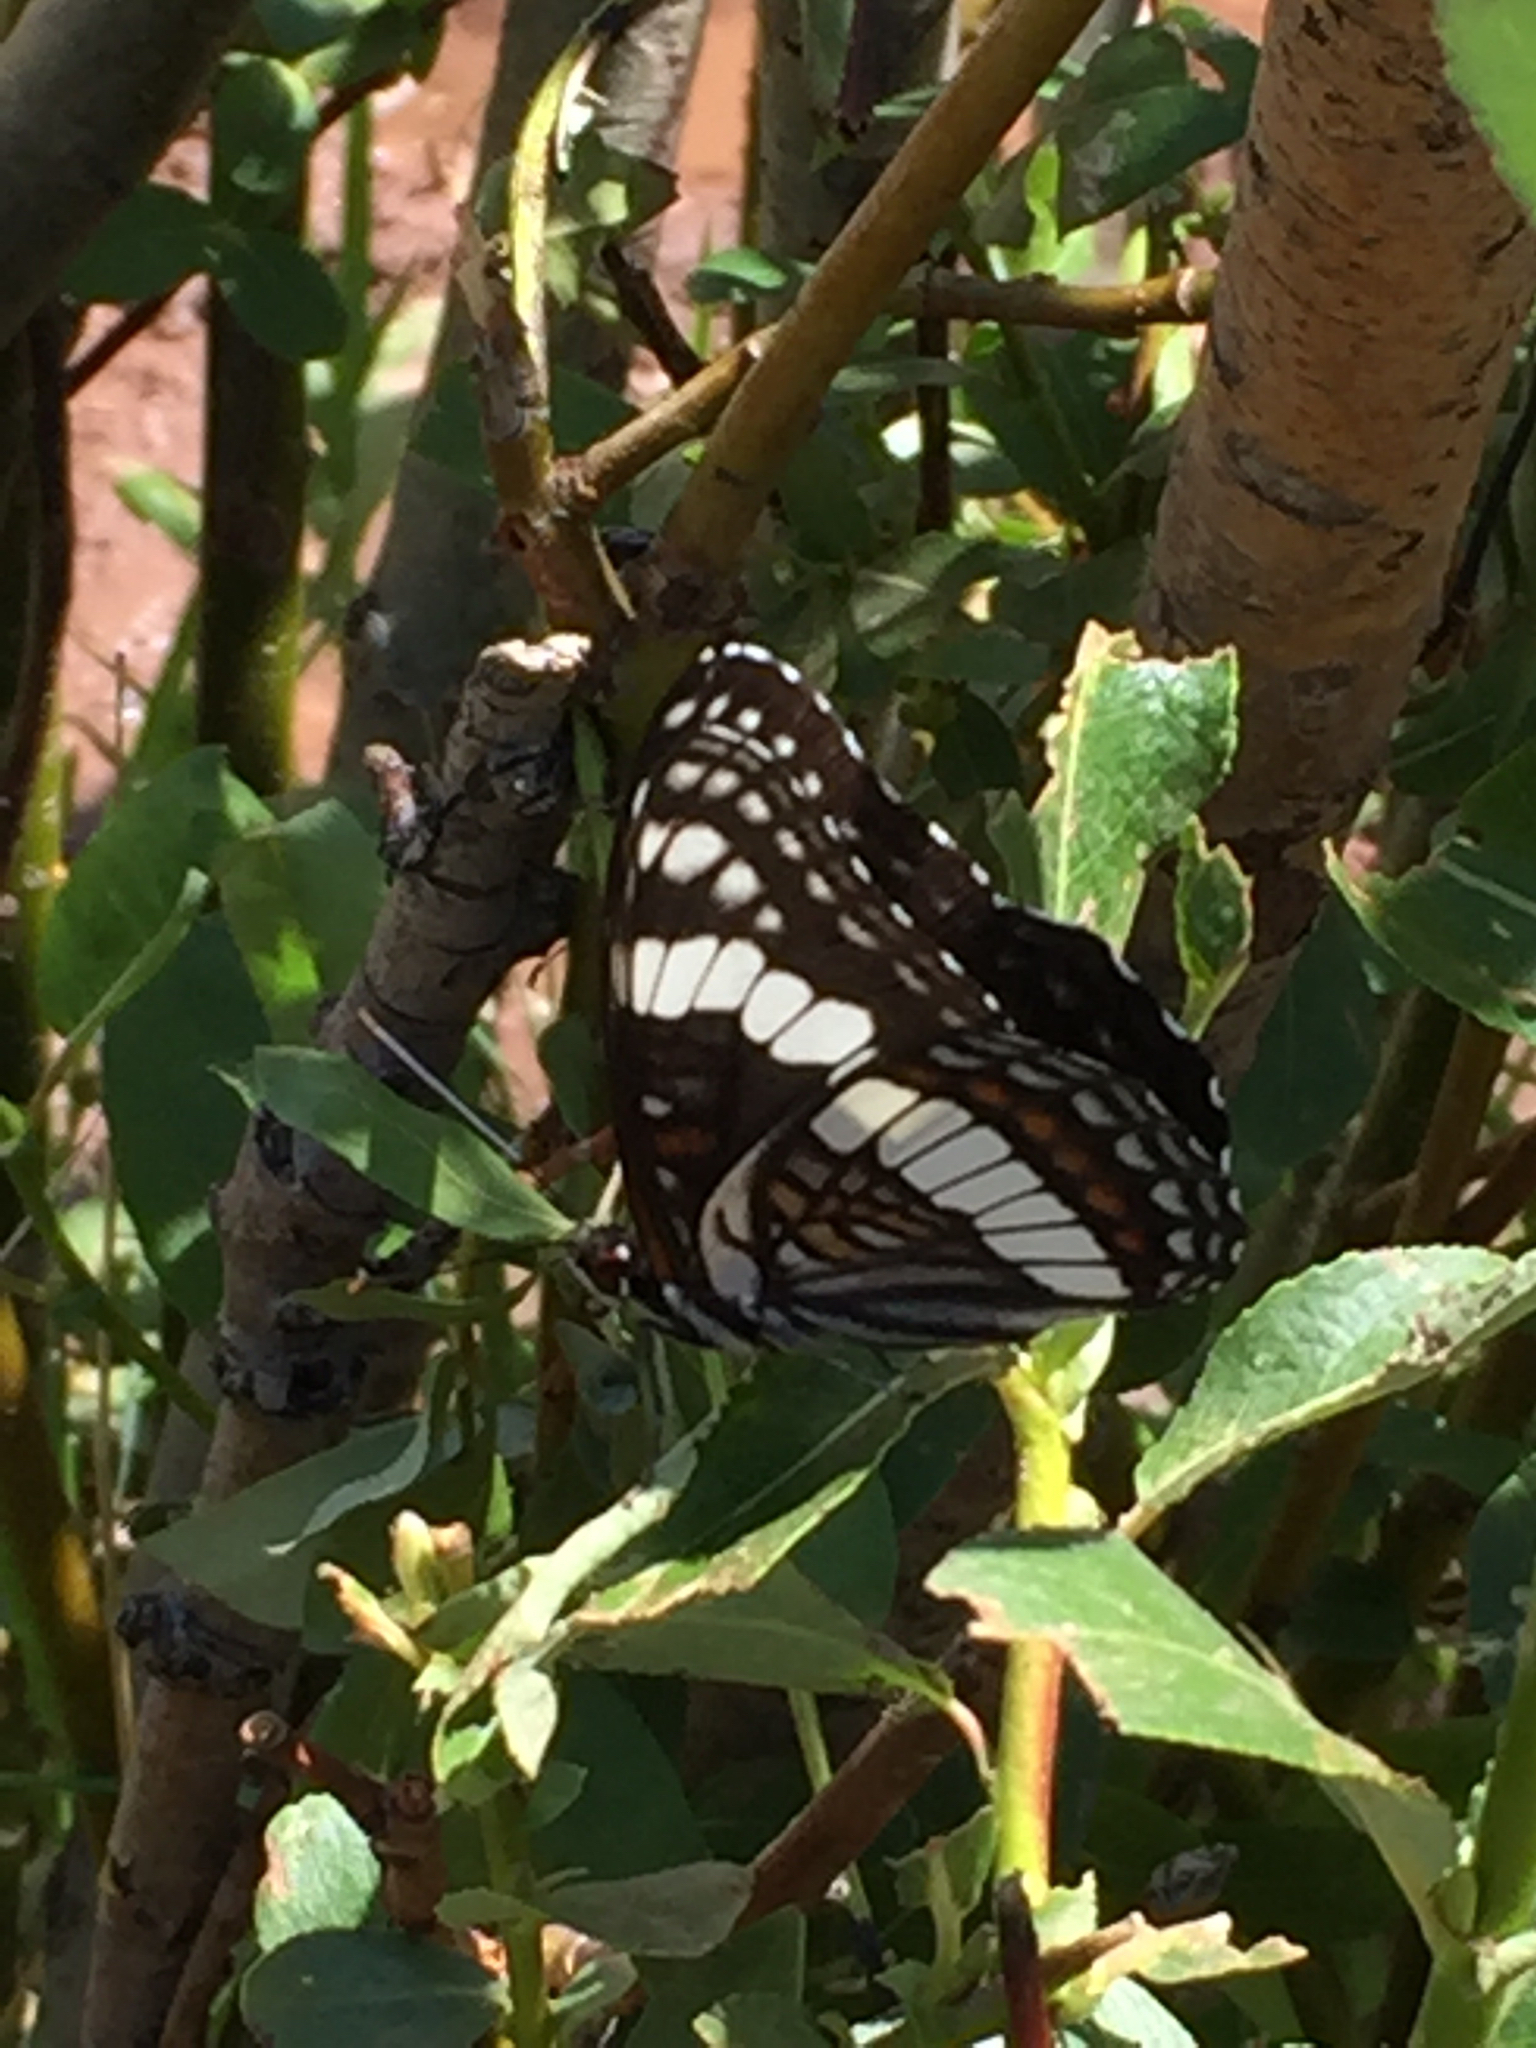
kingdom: Animalia
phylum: Arthropoda
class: Insecta
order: Lepidoptera
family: Nymphalidae
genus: Limenitis
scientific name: Limenitis weidemeyerii
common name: Weidemeyer's admiral
